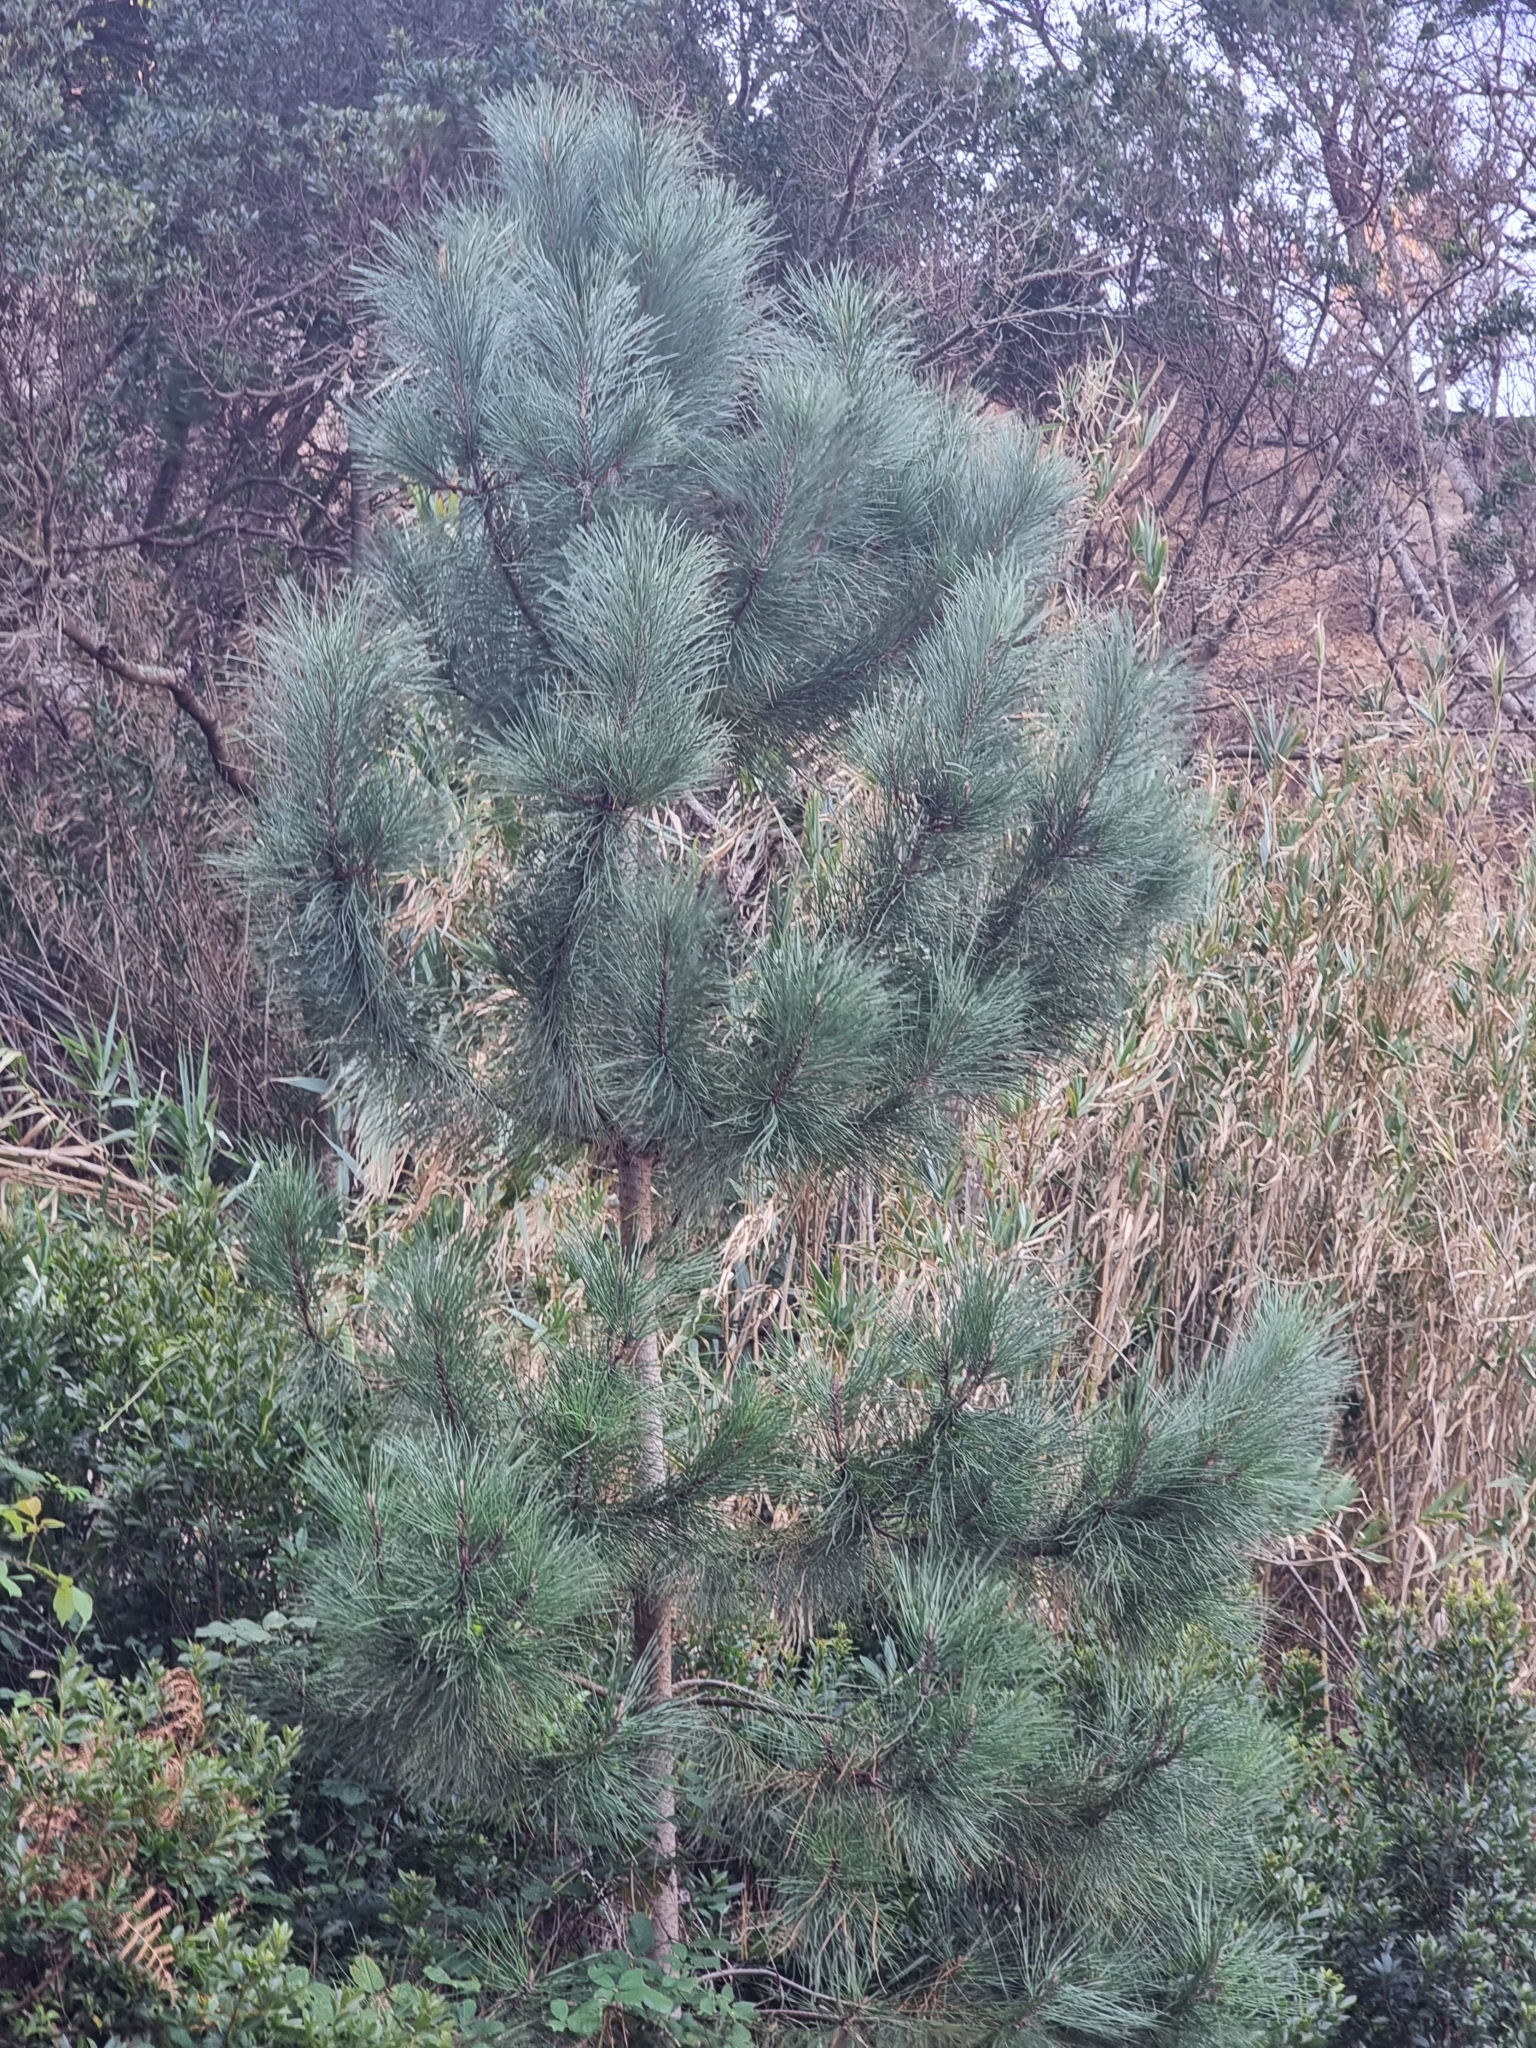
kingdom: Plantae
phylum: Tracheophyta
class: Pinopsida
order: Pinales
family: Pinaceae
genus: Pinus
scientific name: Pinus pinaster
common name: Maritime pine
